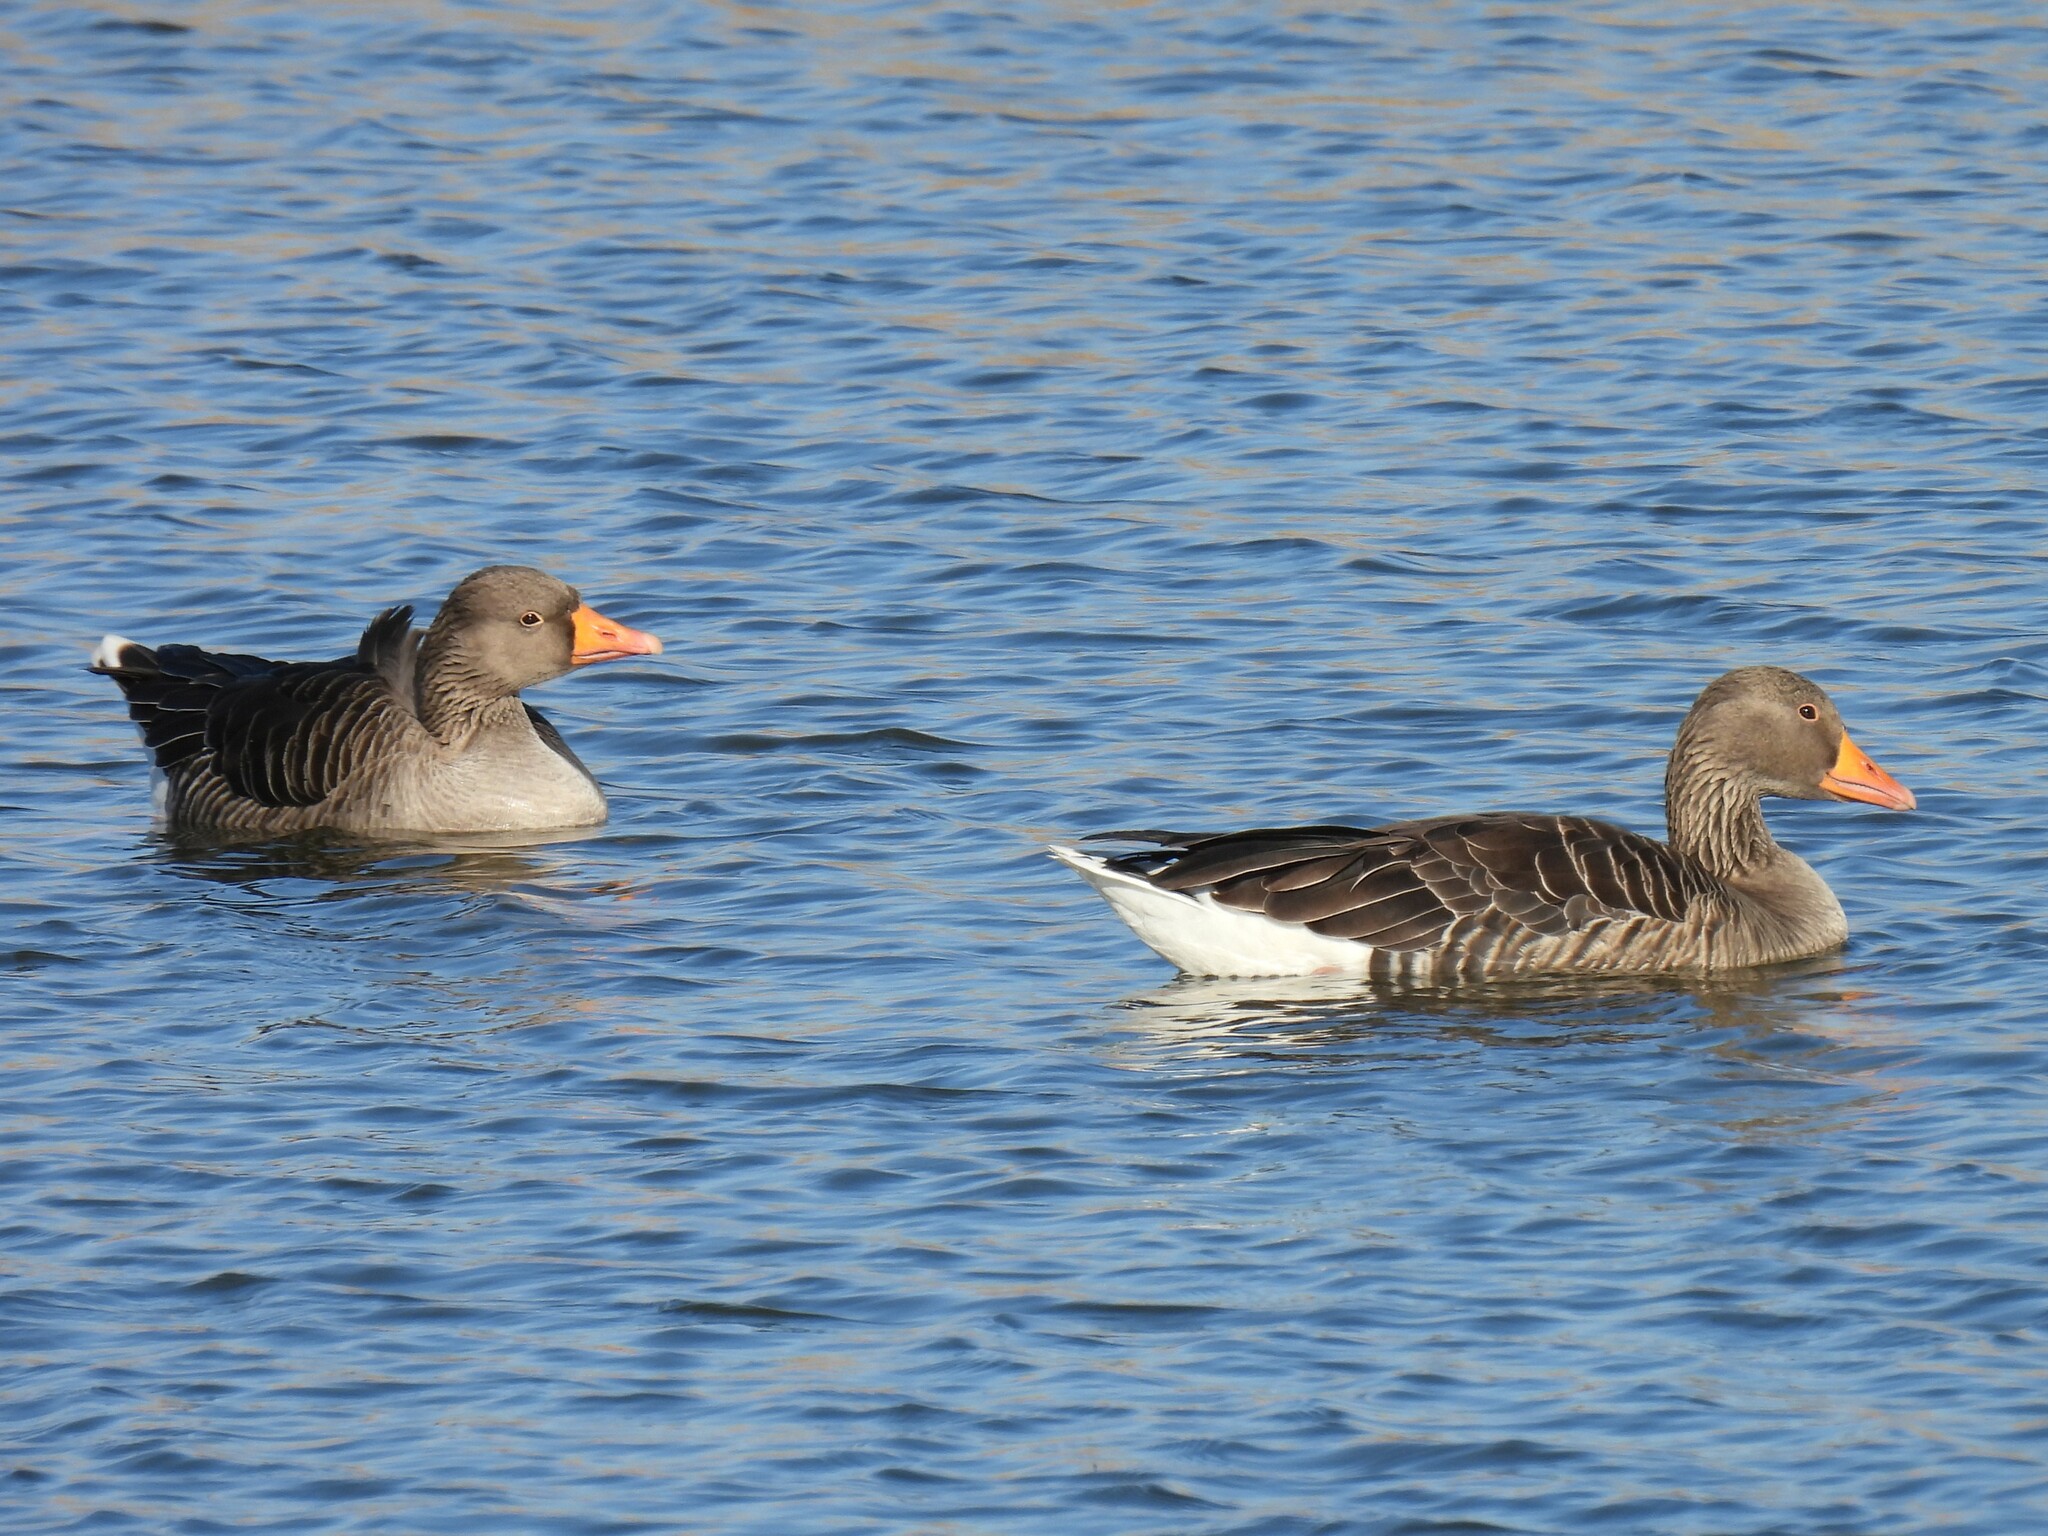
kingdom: Animalia
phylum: Chordata
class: Aves
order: Anseriformes
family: Anatidae
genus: Anser
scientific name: Anser anser
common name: Greylag goose
